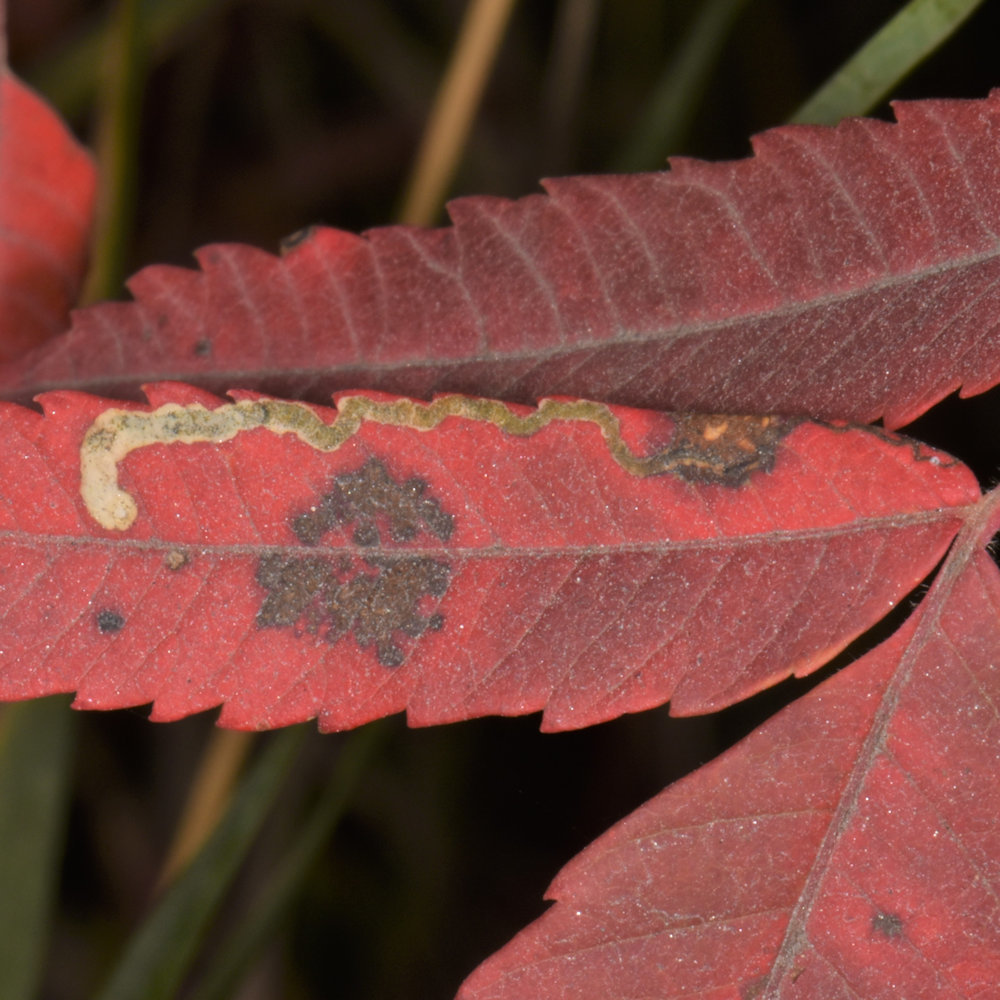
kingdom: Animalia
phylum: Arthropoda
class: Insecta
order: Lepidoptera
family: Nepticulidae
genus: Stigmella
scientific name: Stigmella intermedia
